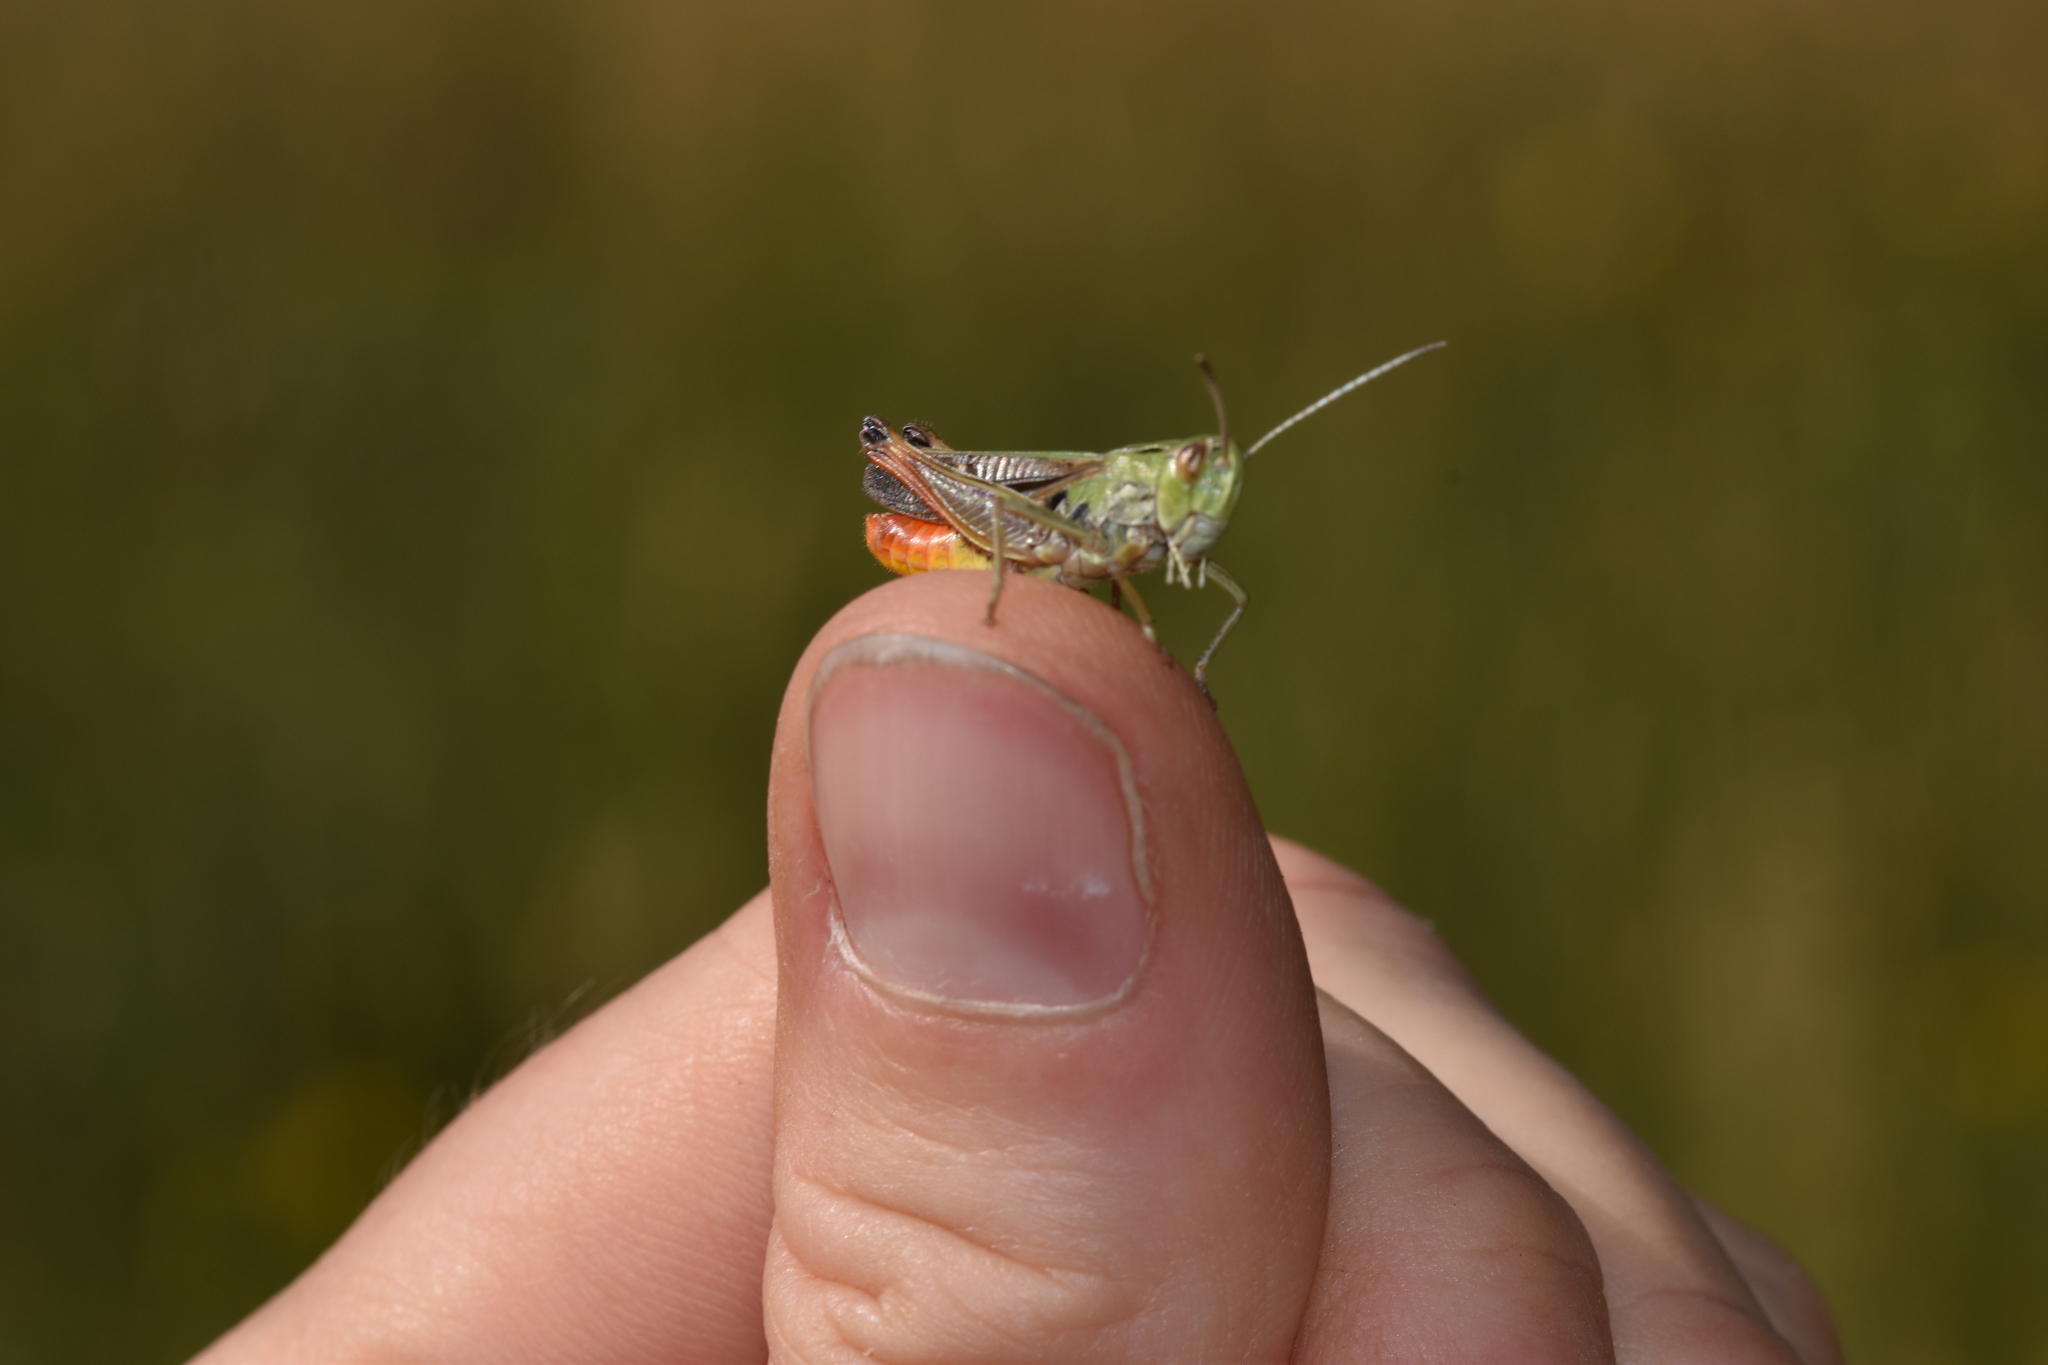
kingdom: Animalia
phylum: Arthropoda
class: Insecta
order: Orthoptera
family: Acrididae
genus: Stenobothrus
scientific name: Stenobothrus lineatus
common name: Stripe-winged grasshopper
